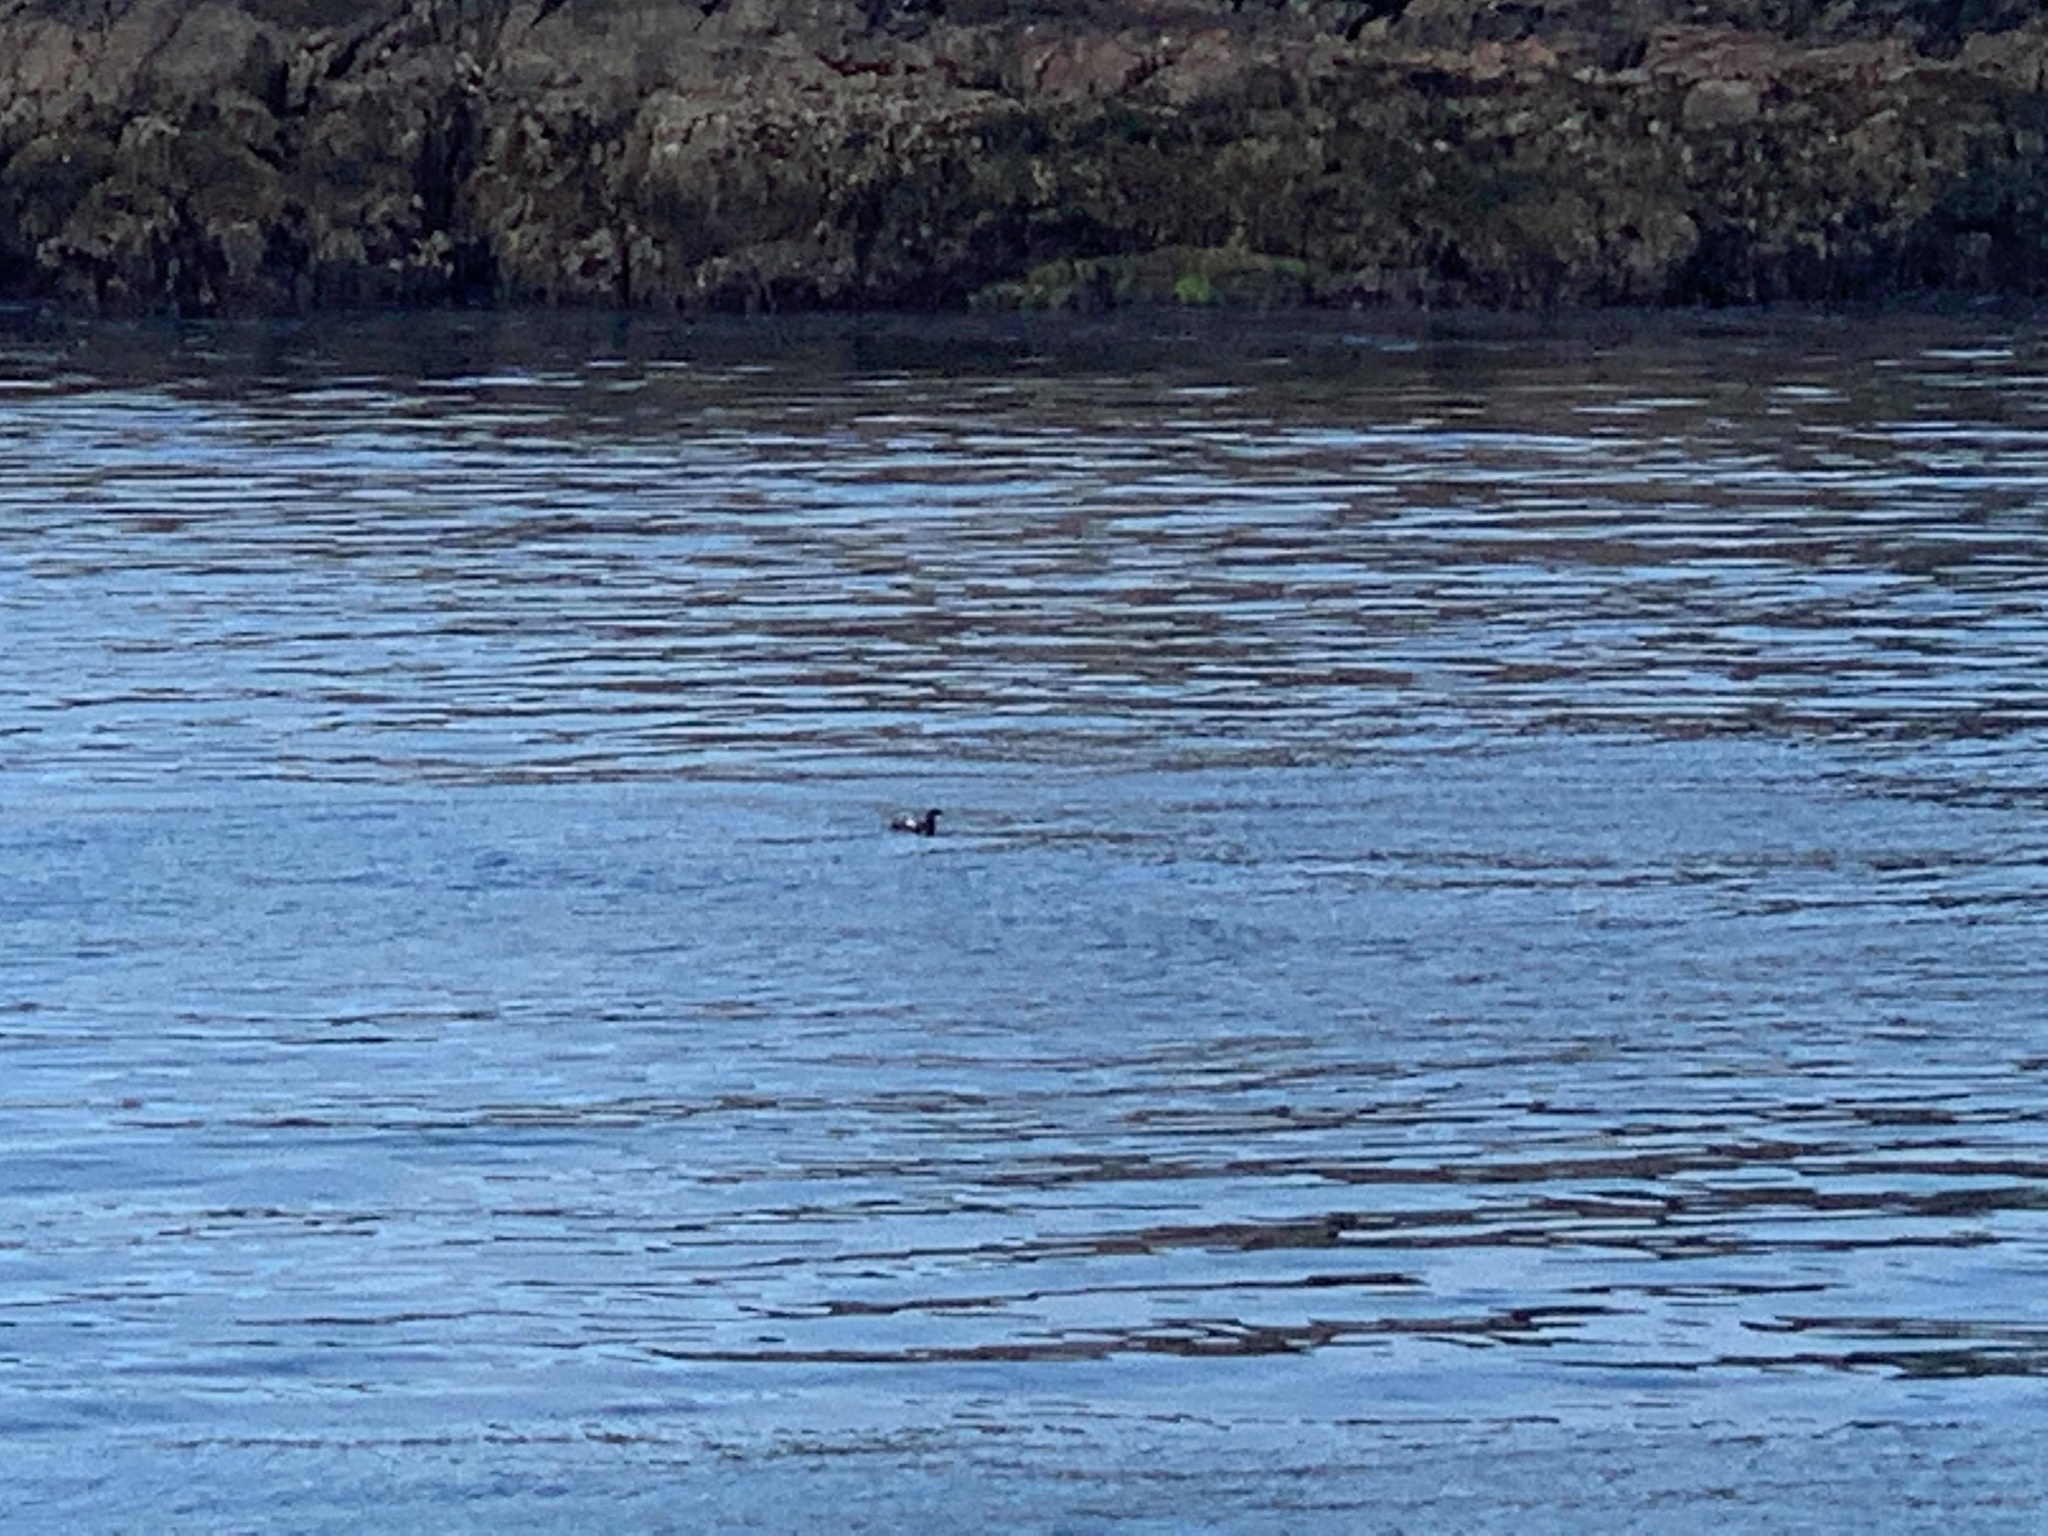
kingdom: Animalia
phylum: Chordata
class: Aves
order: Charadriiformes
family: Alcidae
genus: Cepphus
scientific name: Cepphus columba
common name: Pigeon guillemot
